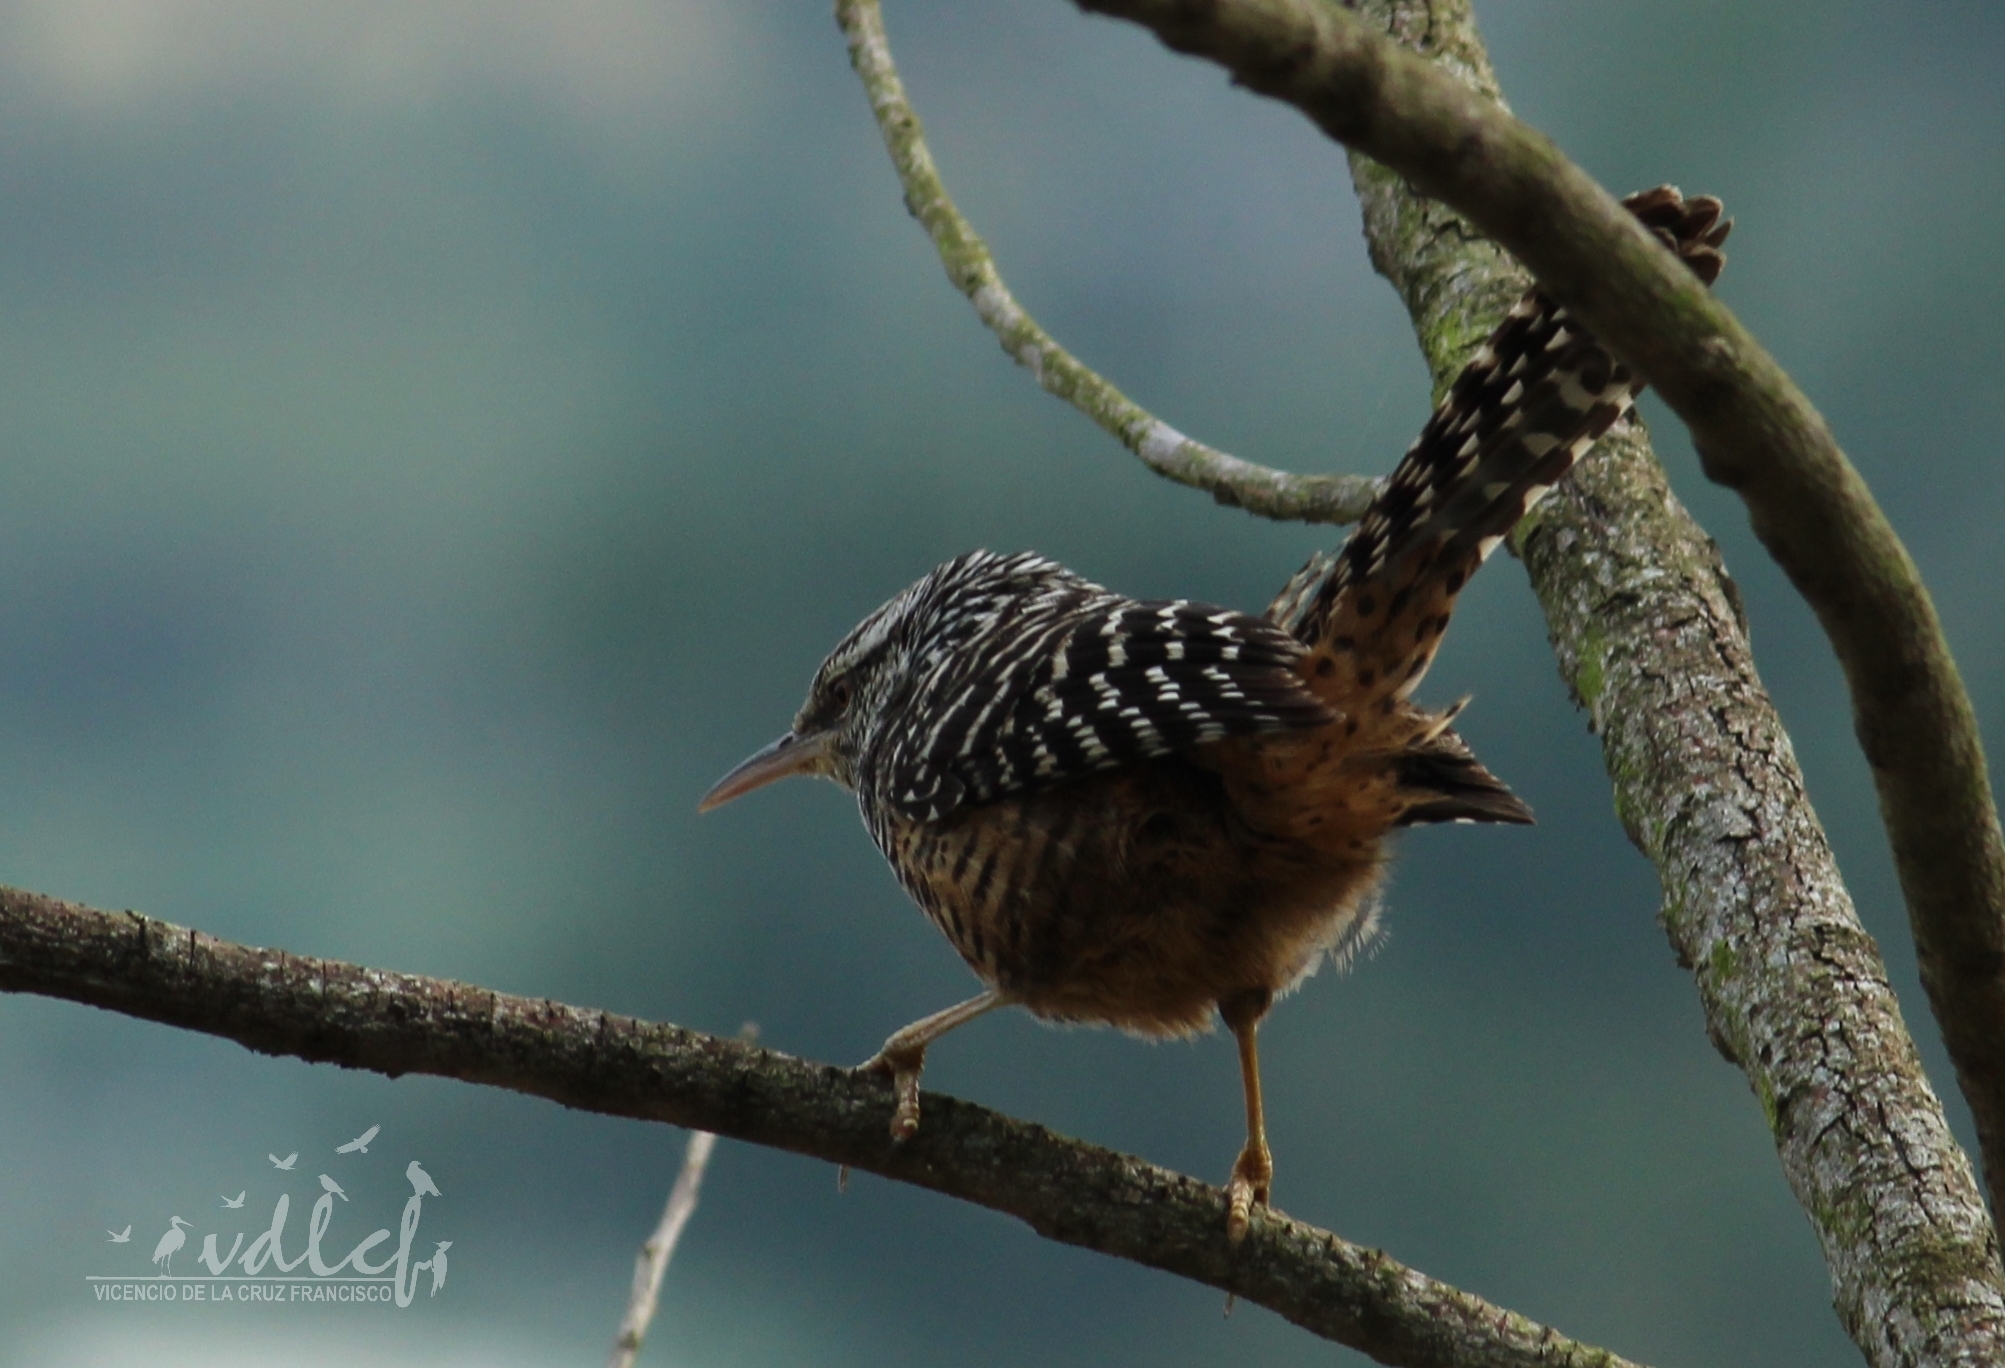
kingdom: Animalia
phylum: Chordata
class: Aves
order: Passeriformes
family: Troglodytidae
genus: Campylorhynchus
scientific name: Campylorhynchus zonatus
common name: Band-backed wren
